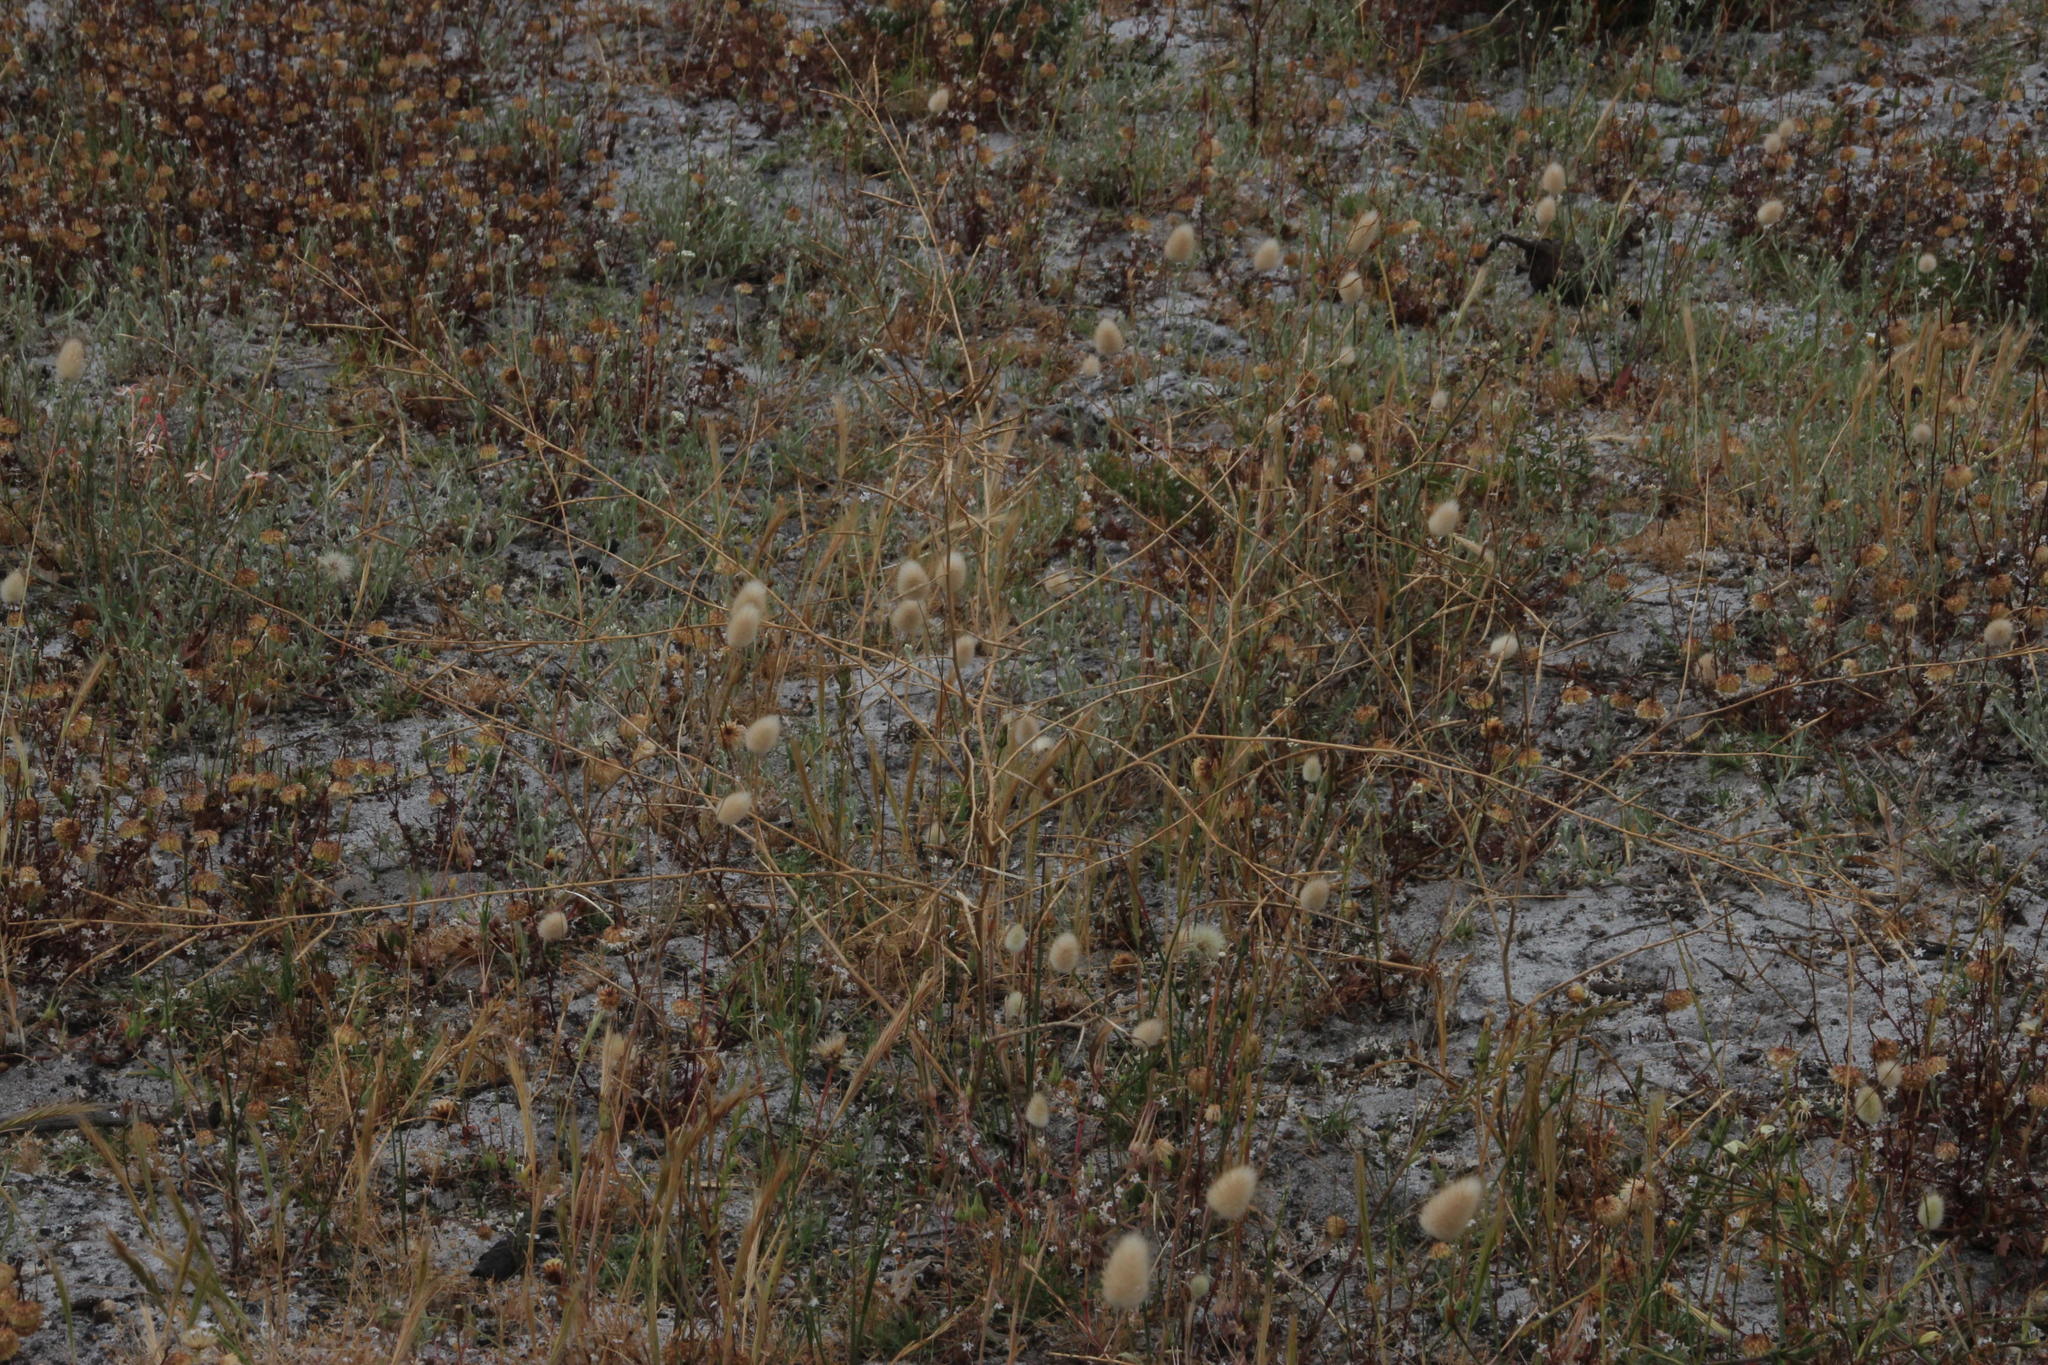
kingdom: Plantae
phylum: Tracheophyta
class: Magnoliopsida
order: Brassicales
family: Brassicaceae
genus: Brassica
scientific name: Brassica tournefortii
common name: Pale cabbage
